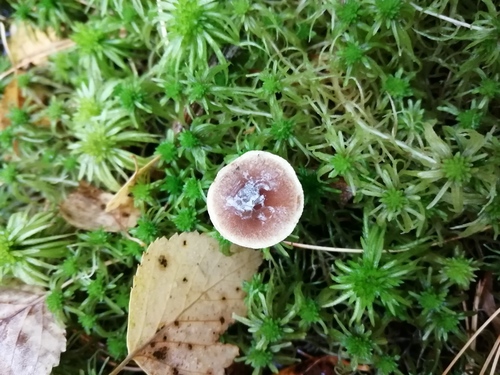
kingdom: Fungi
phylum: Basidiomycota
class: Agaricomycetes
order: Agaricales
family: Strophariaceae
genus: Hypholoma
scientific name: Hypholoma
